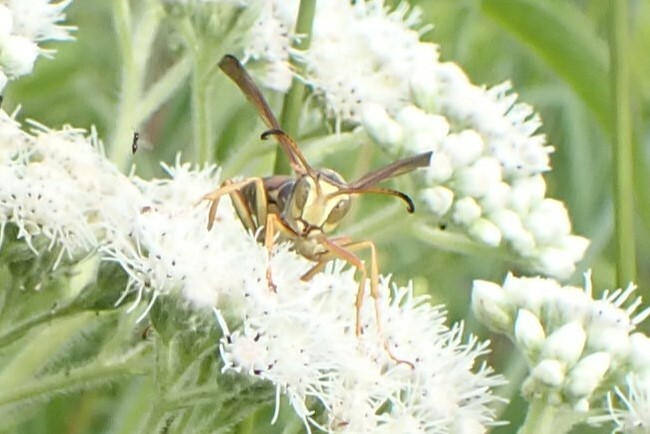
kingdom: Animalia
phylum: Arthropoda
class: Insecta
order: Hymenoptera
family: Eumenidae
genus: Polistes
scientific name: Polistes fuscatus
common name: Dark paper wasp
